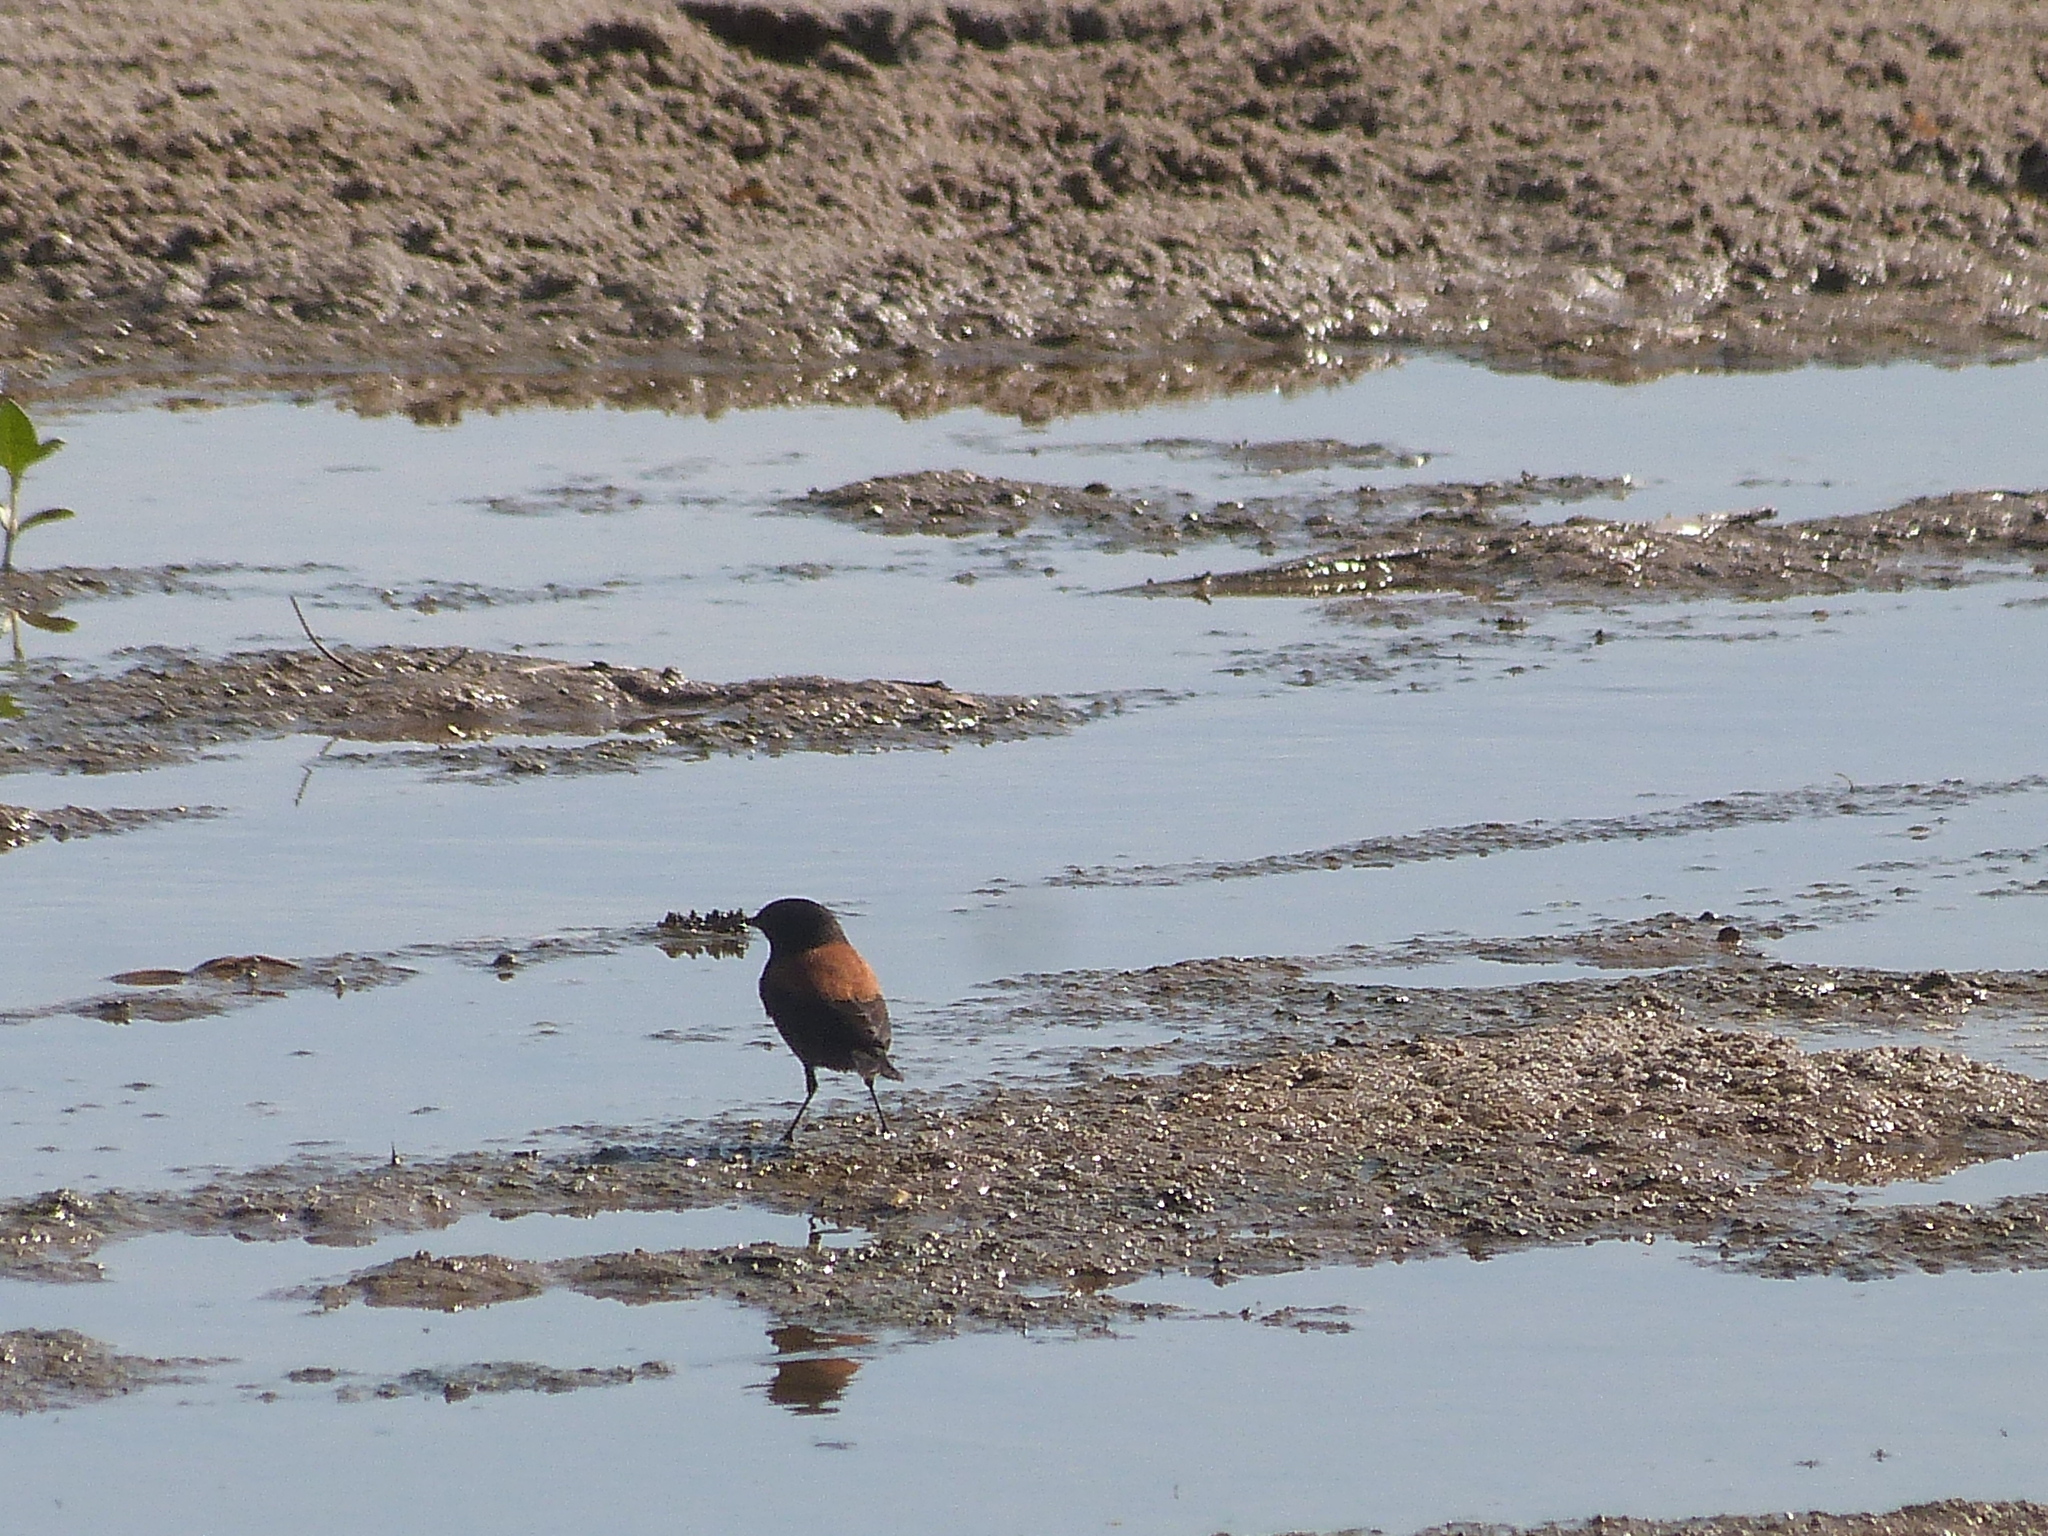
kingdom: Animalia
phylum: Chordata
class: Aves
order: Passeriformes
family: Tyrannidae
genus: Lessonia
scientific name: Lessonia rufa
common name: Austral negrito
